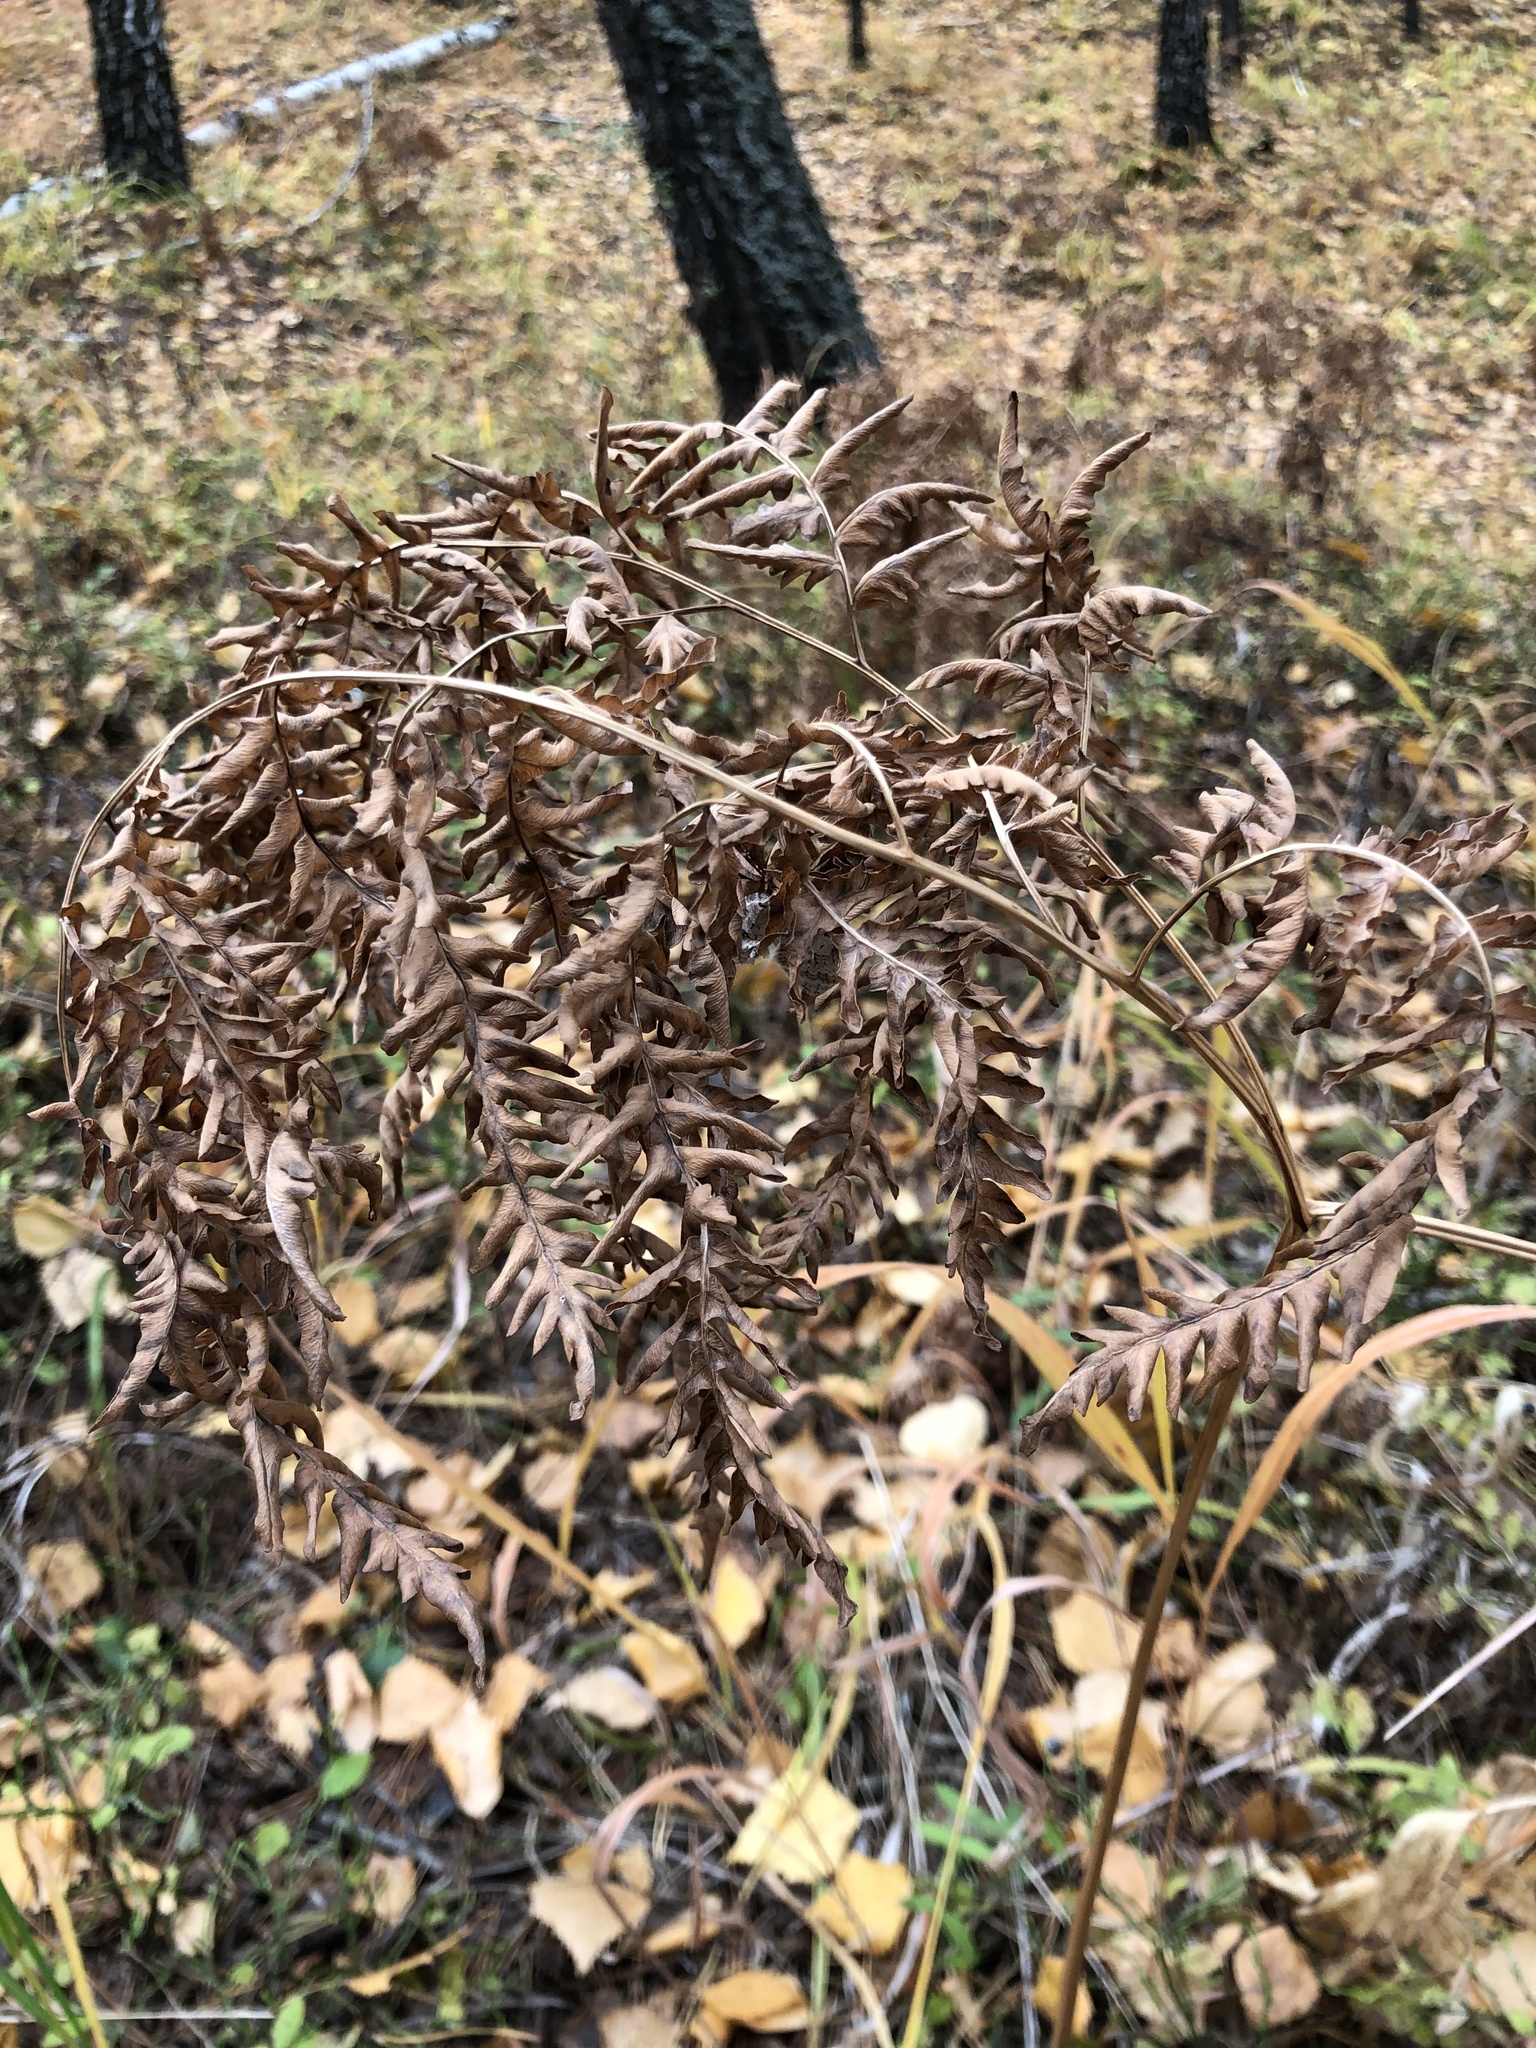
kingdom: Plantae
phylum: Tracheophyta
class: Polypodiopsida
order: Polypodiales
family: Dennstaedtiaceae
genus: Pteridium
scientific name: Pteridium aquilinum
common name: Bracken
